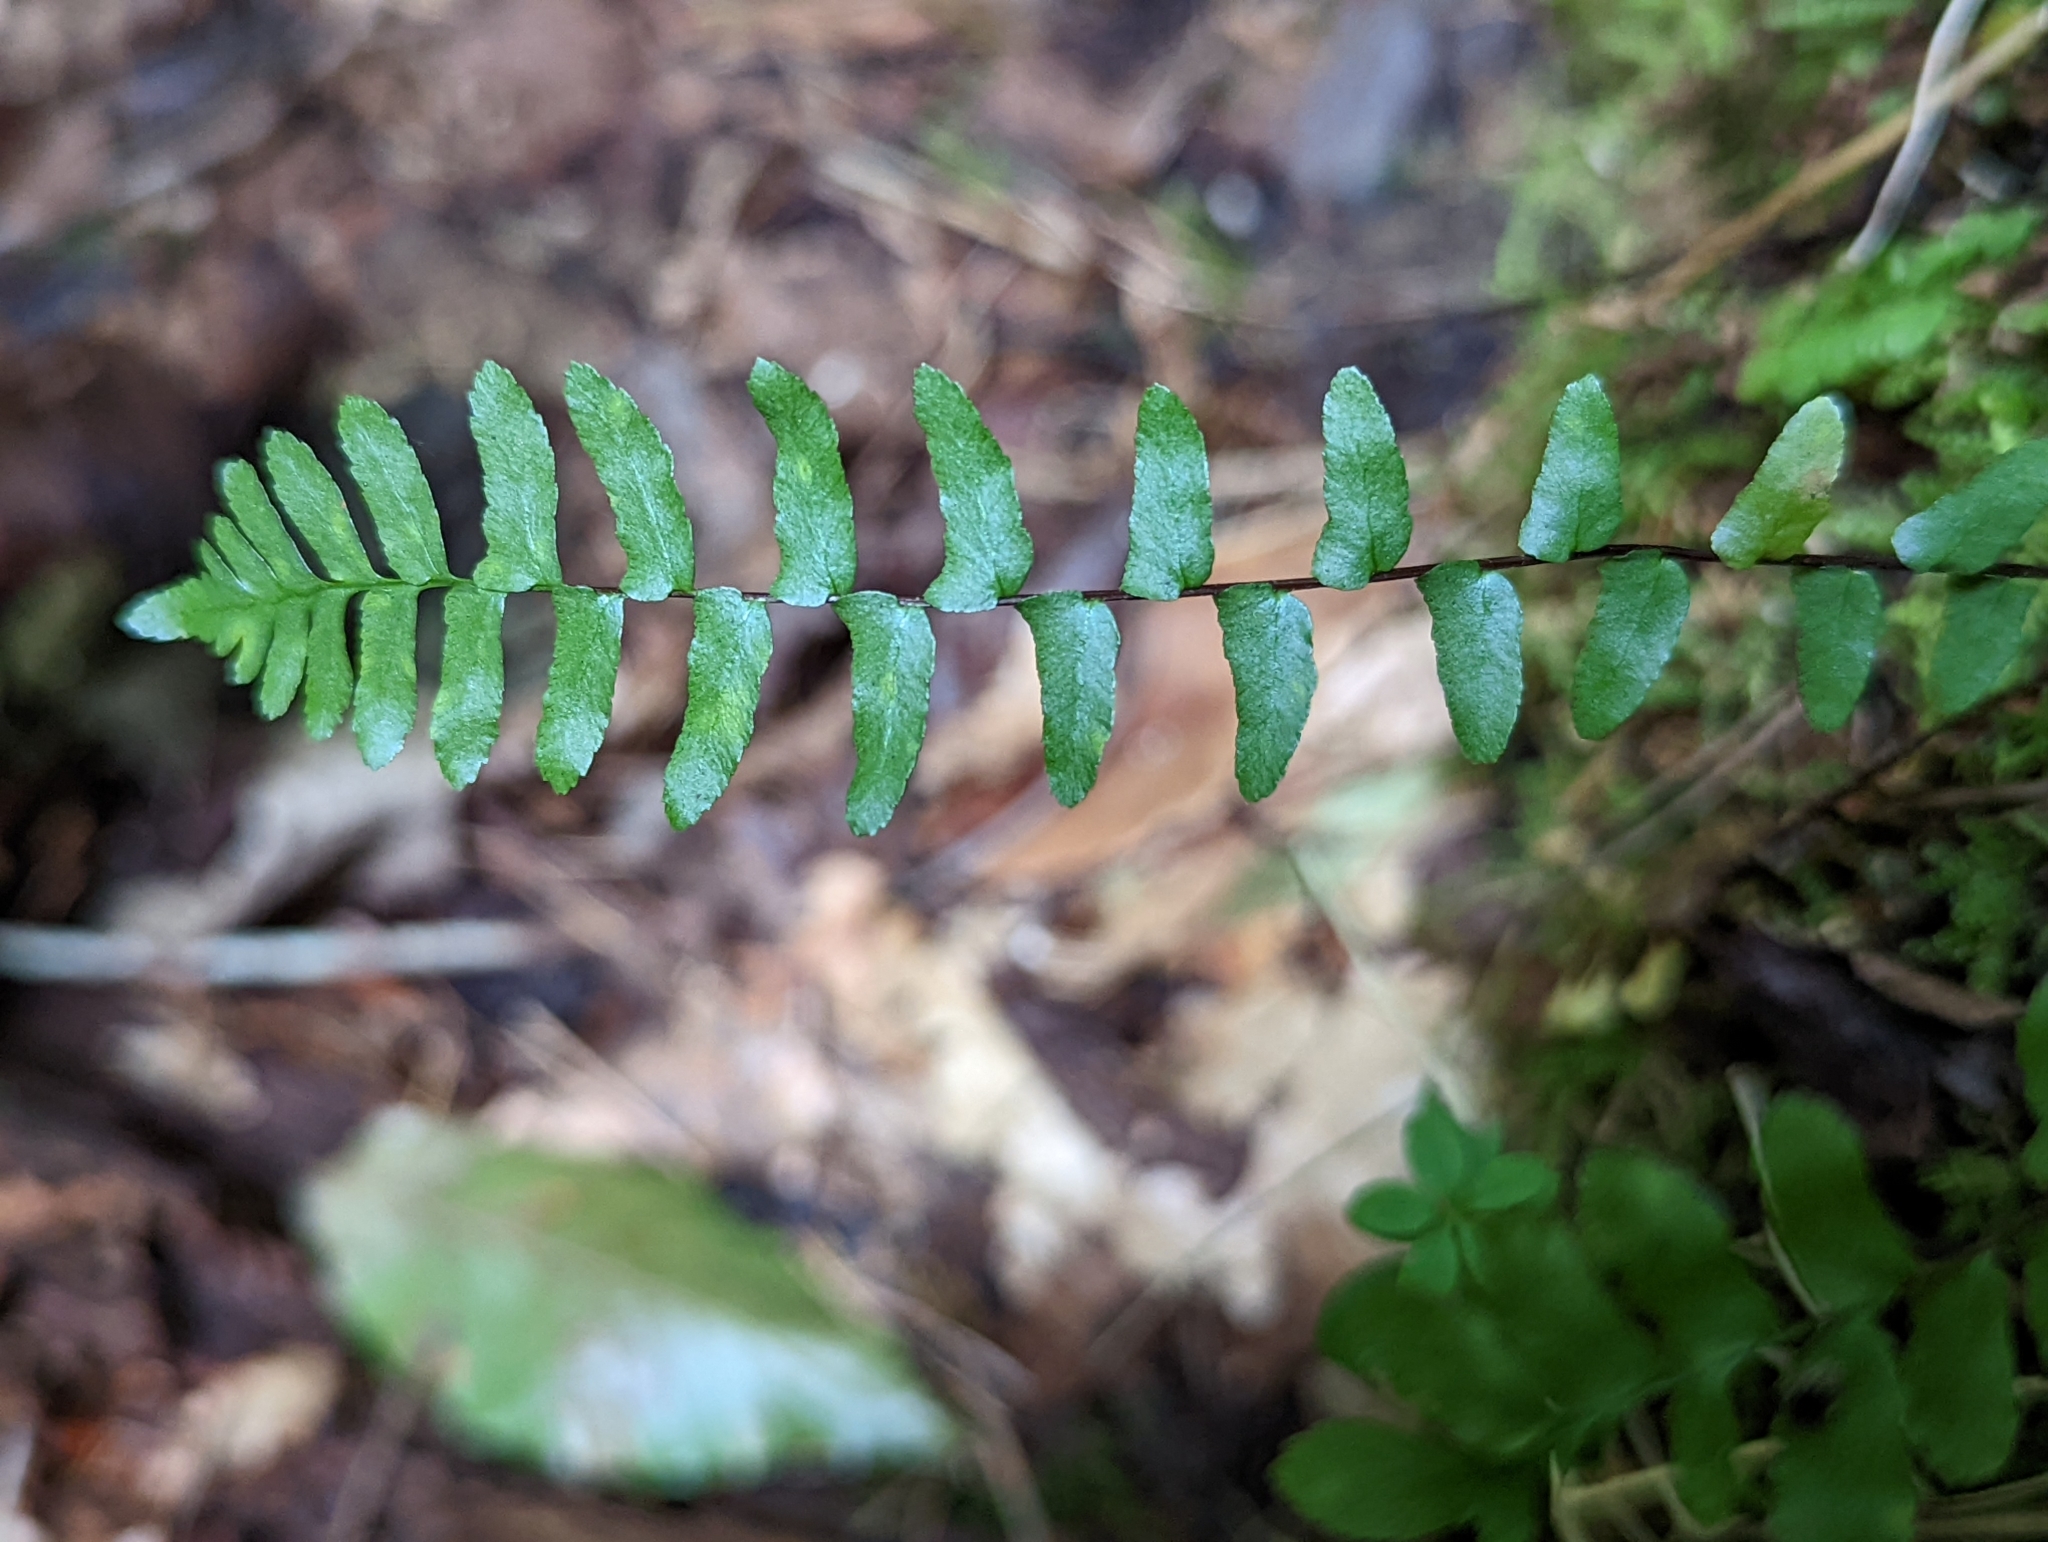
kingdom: Plantae
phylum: Tracheophyta
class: Polypodiopsida
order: Polypodiales
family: Aspleniaceae
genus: Asplenium
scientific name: Asplenium platyneuron
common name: Ebony spleenwort
